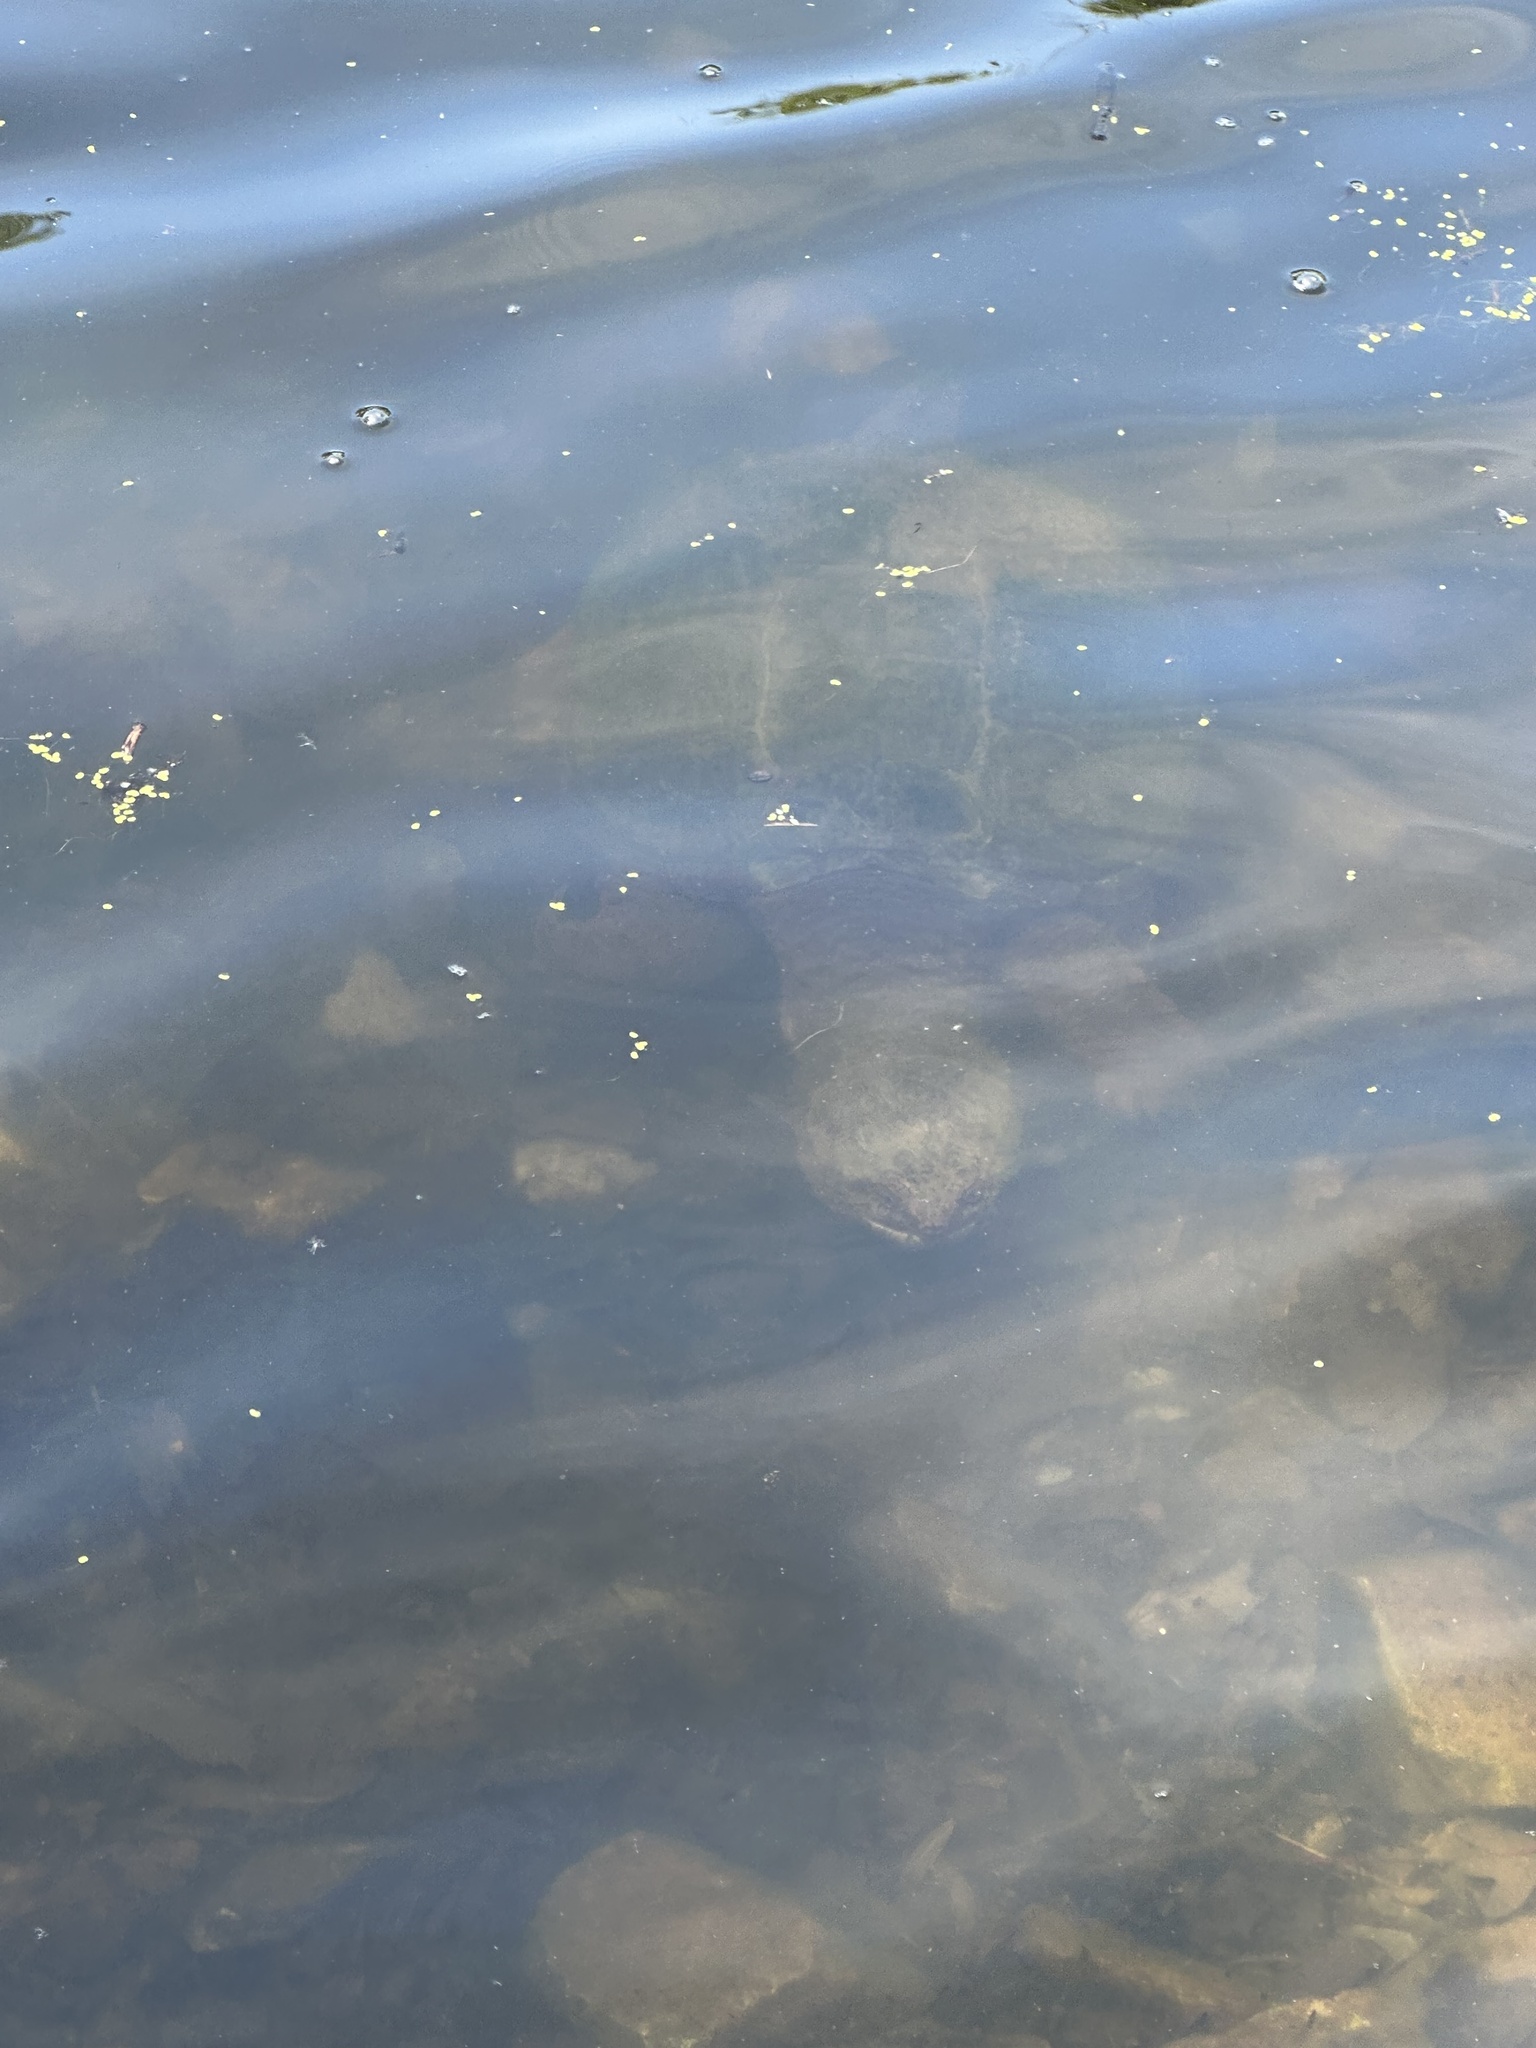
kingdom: Animalia
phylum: Chordata
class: Testudines
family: Chelydridae
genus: Chelydra
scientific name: Chelydra serpentina
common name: Common snapping turtle
